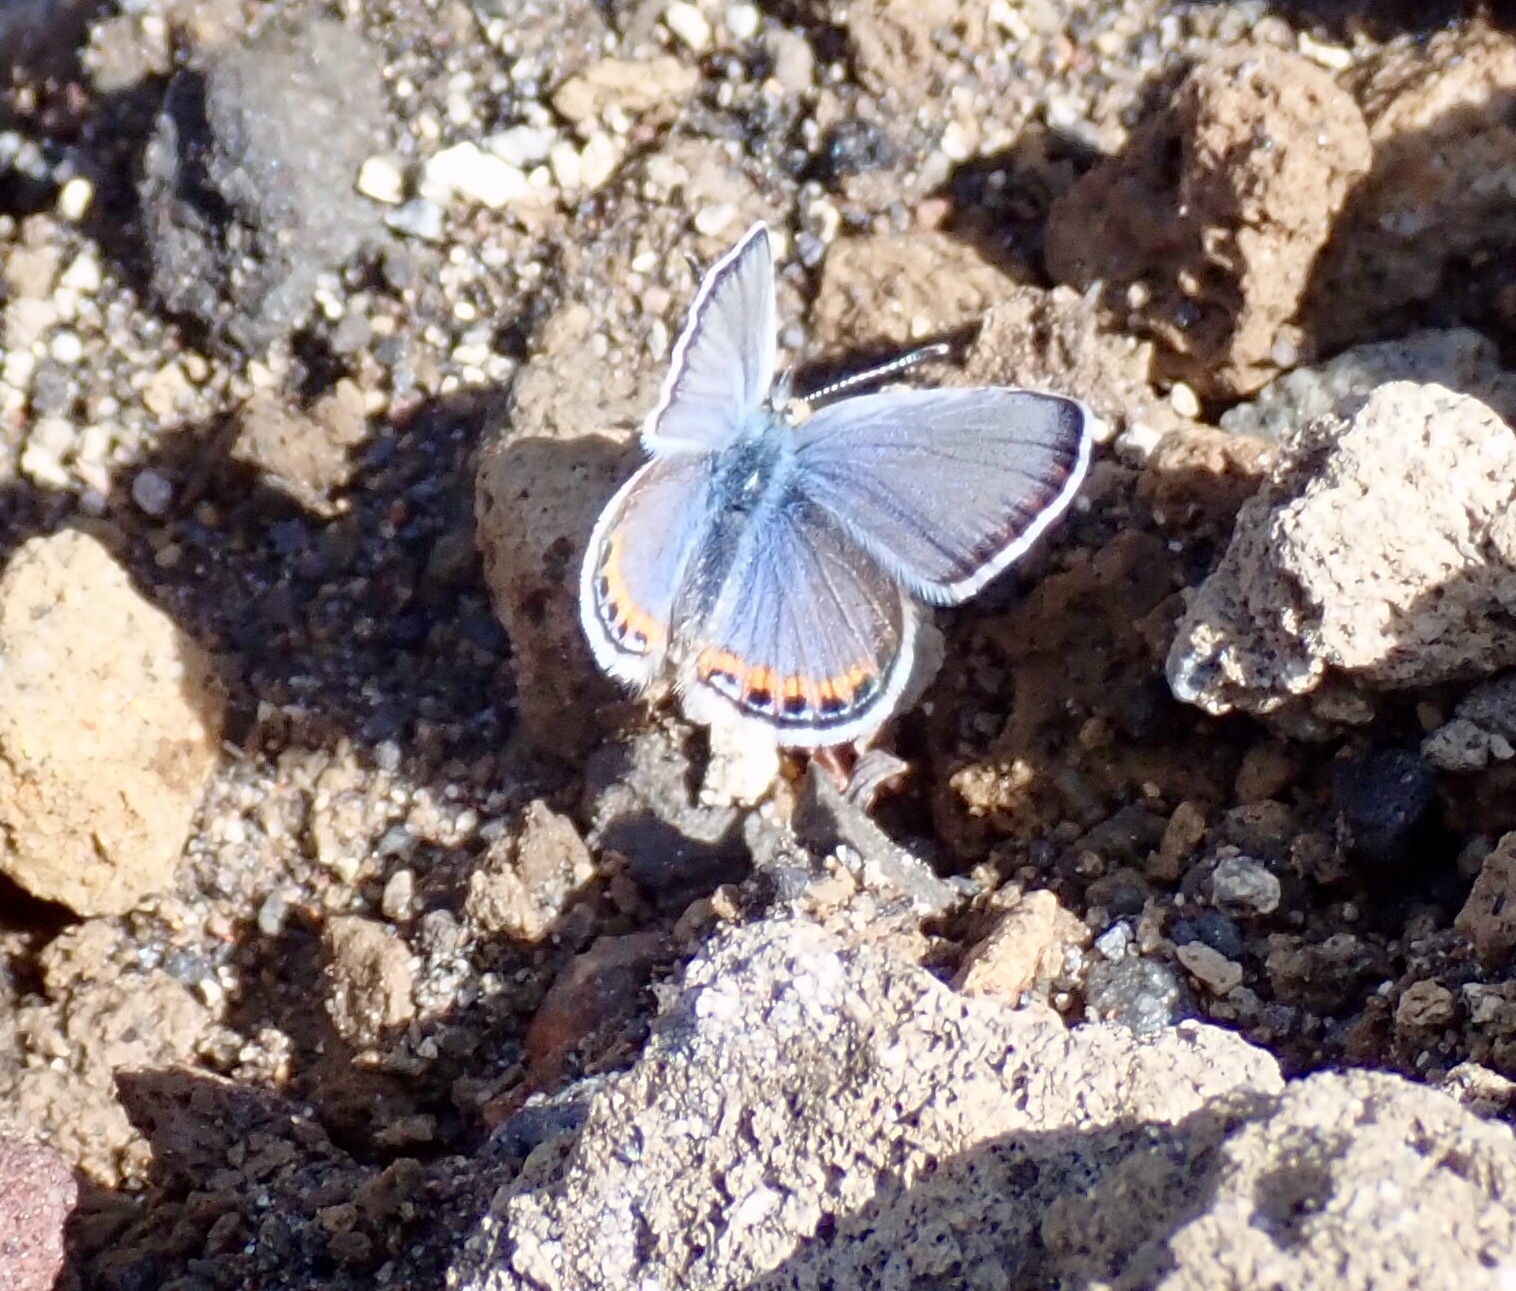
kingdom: Animalia
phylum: Arthropoda
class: Insecta
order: Lepidoptera
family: Lycaenidae
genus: Icaricia
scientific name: Icaricia lupini
